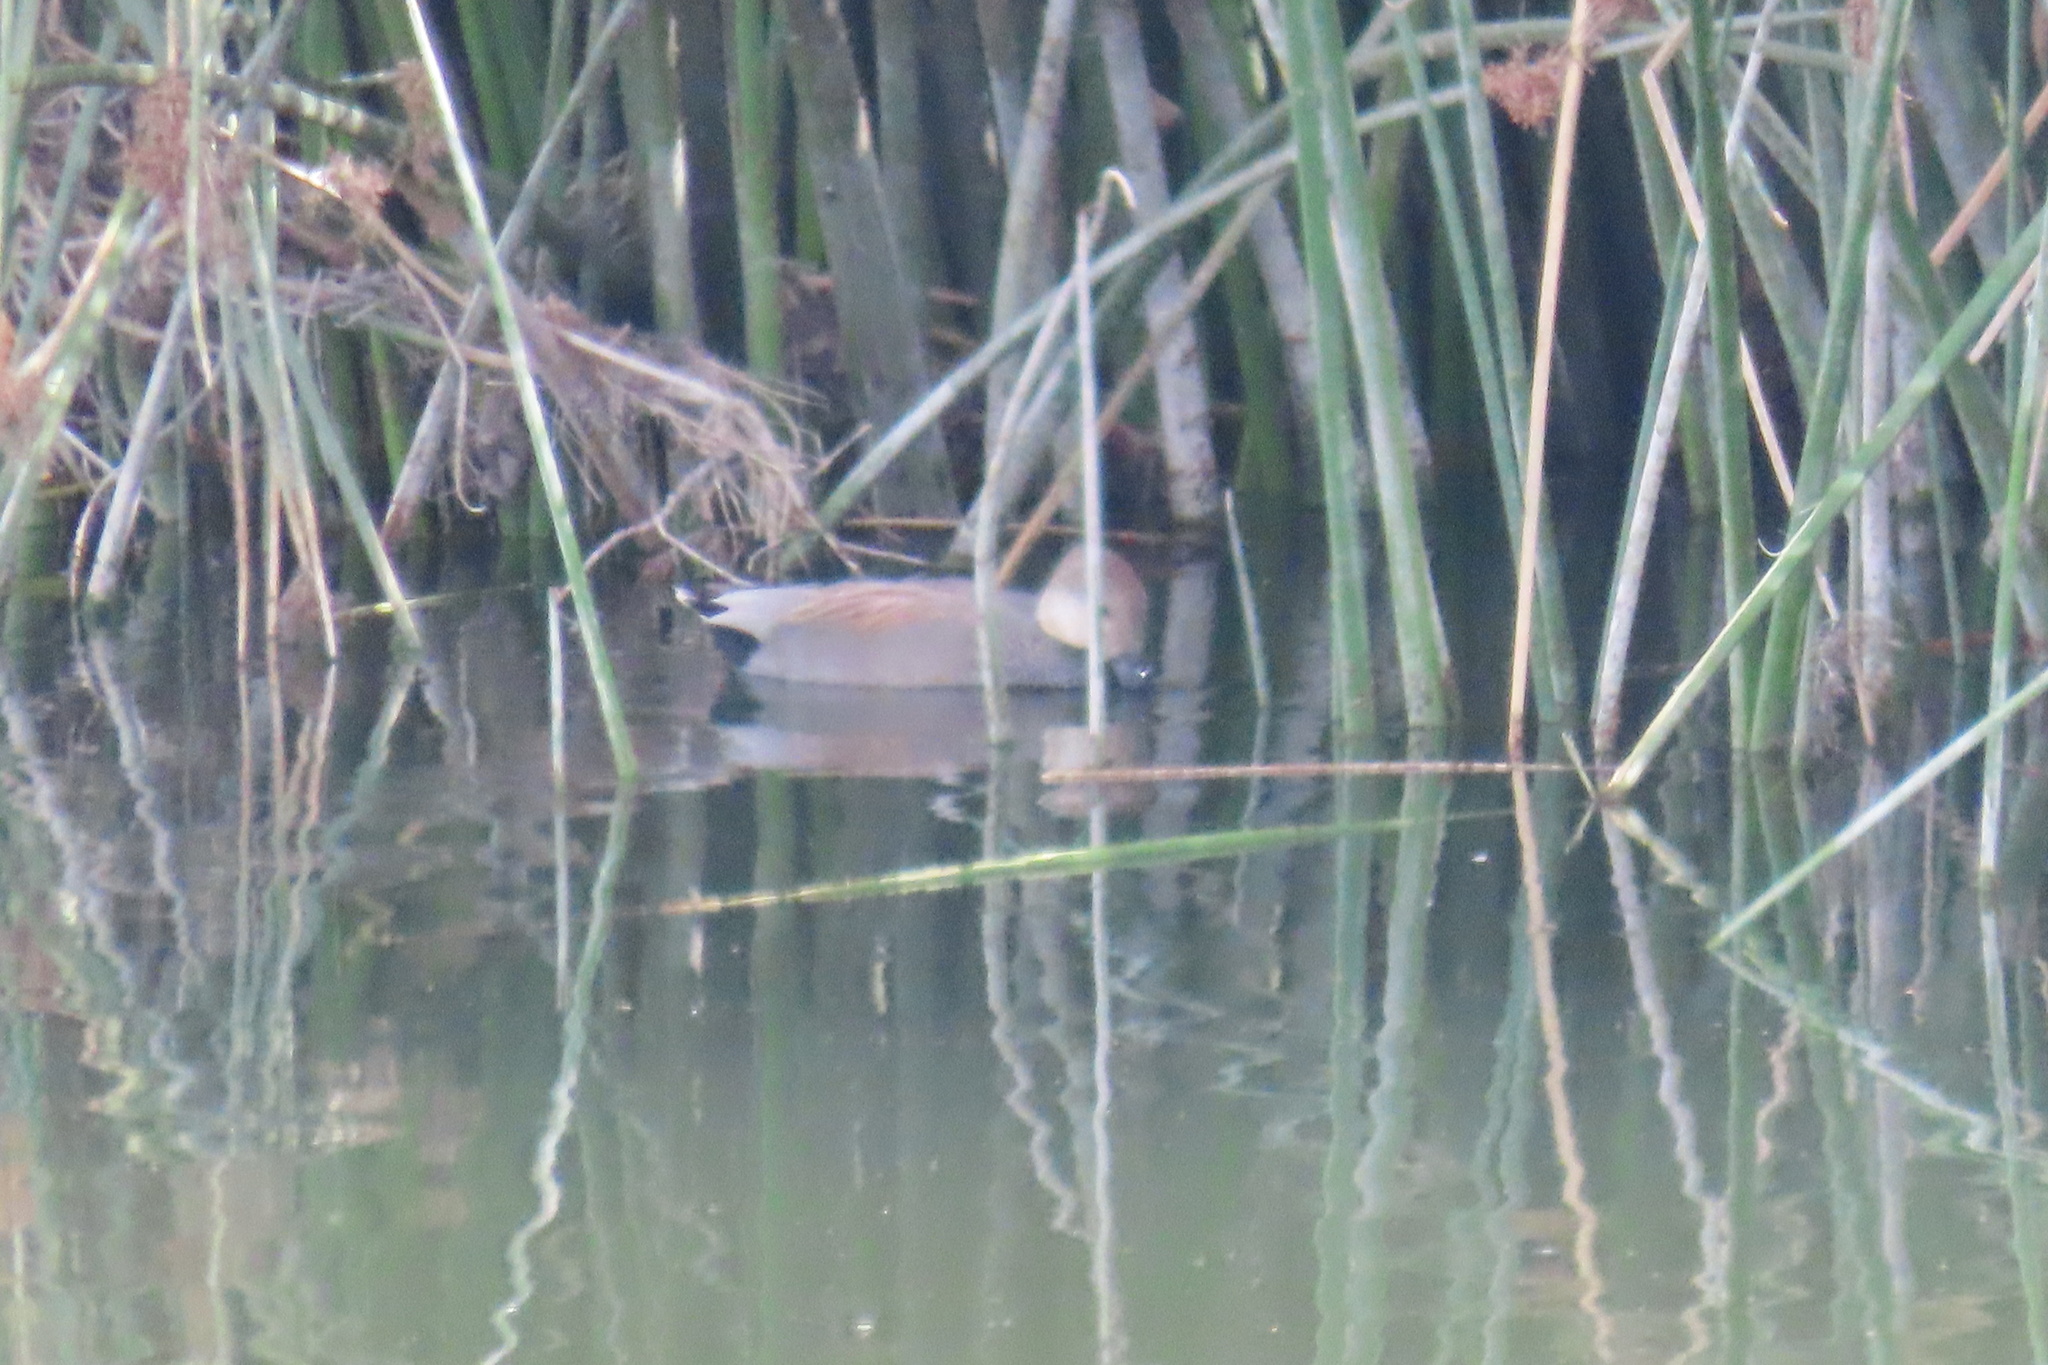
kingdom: Animalia
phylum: Chordata
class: Aves
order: Anseriformes
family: Anatidae
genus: Mareca
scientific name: Mareca strepera
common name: Gadwall
